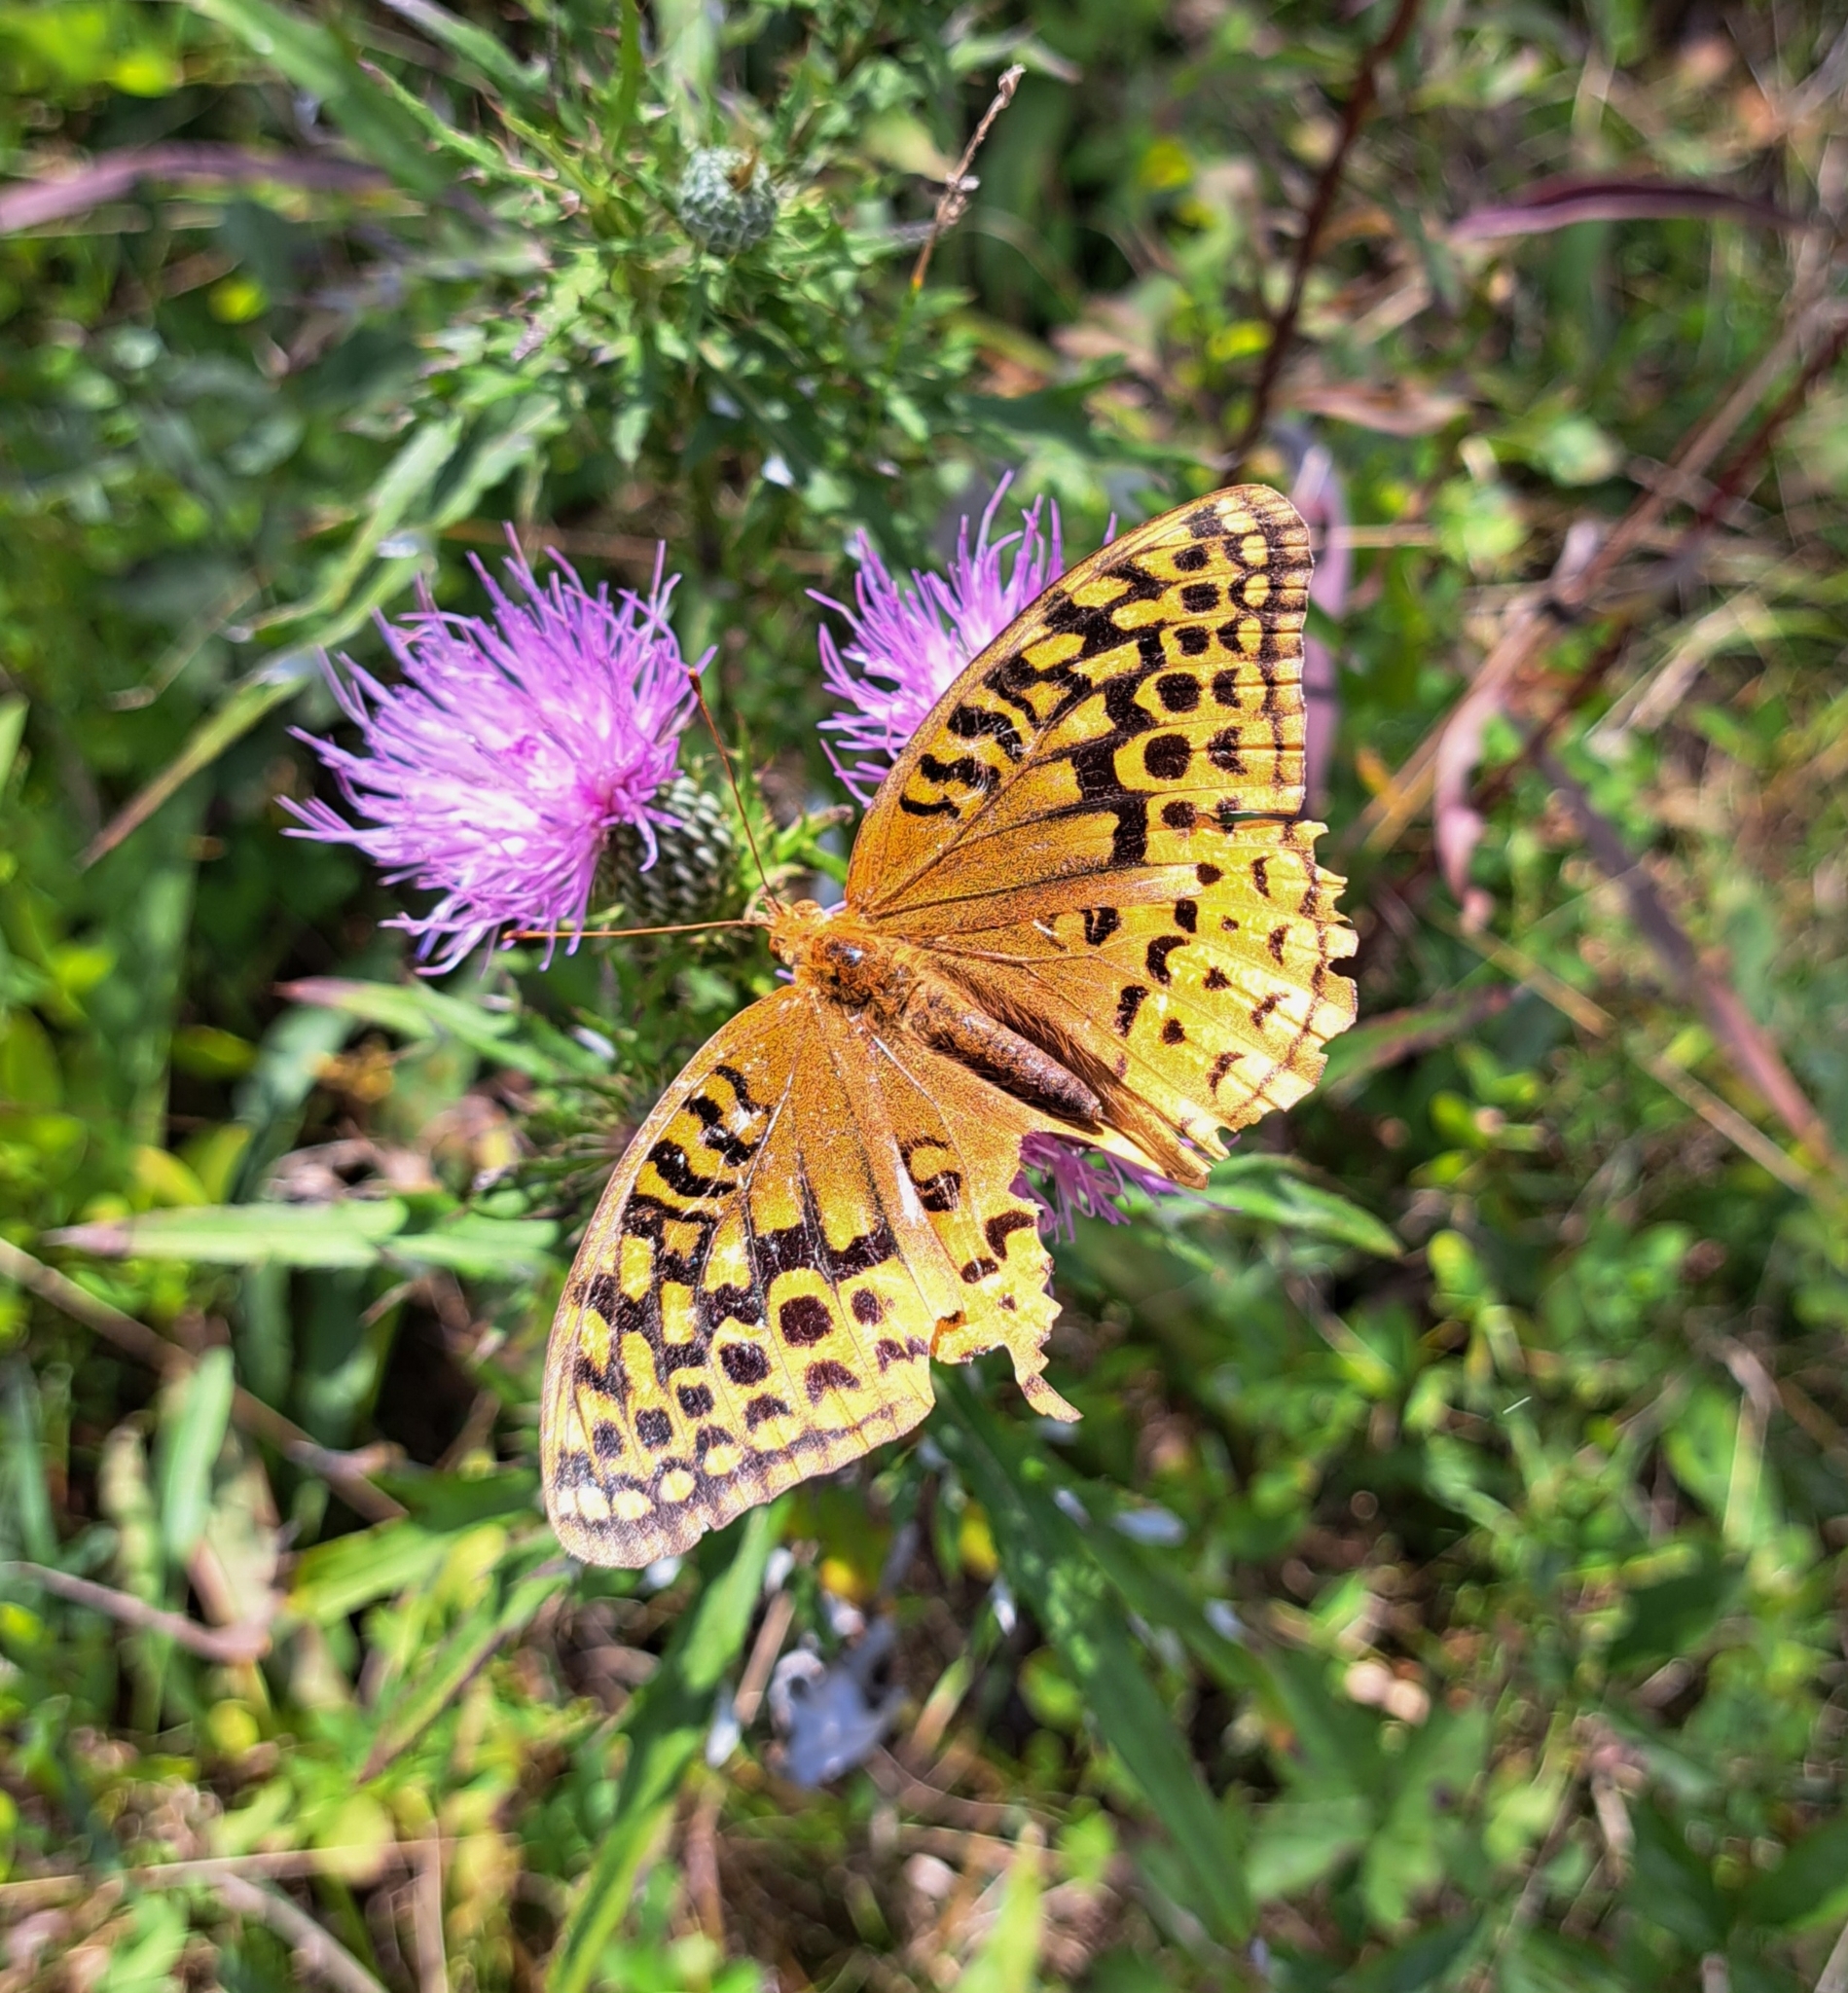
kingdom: Animalia
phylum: Arthropoda
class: Insecta
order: Lepidoptera
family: Nymphalidae
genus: Speyeria
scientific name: Speyeria cybele
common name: Great spangled fritillary
